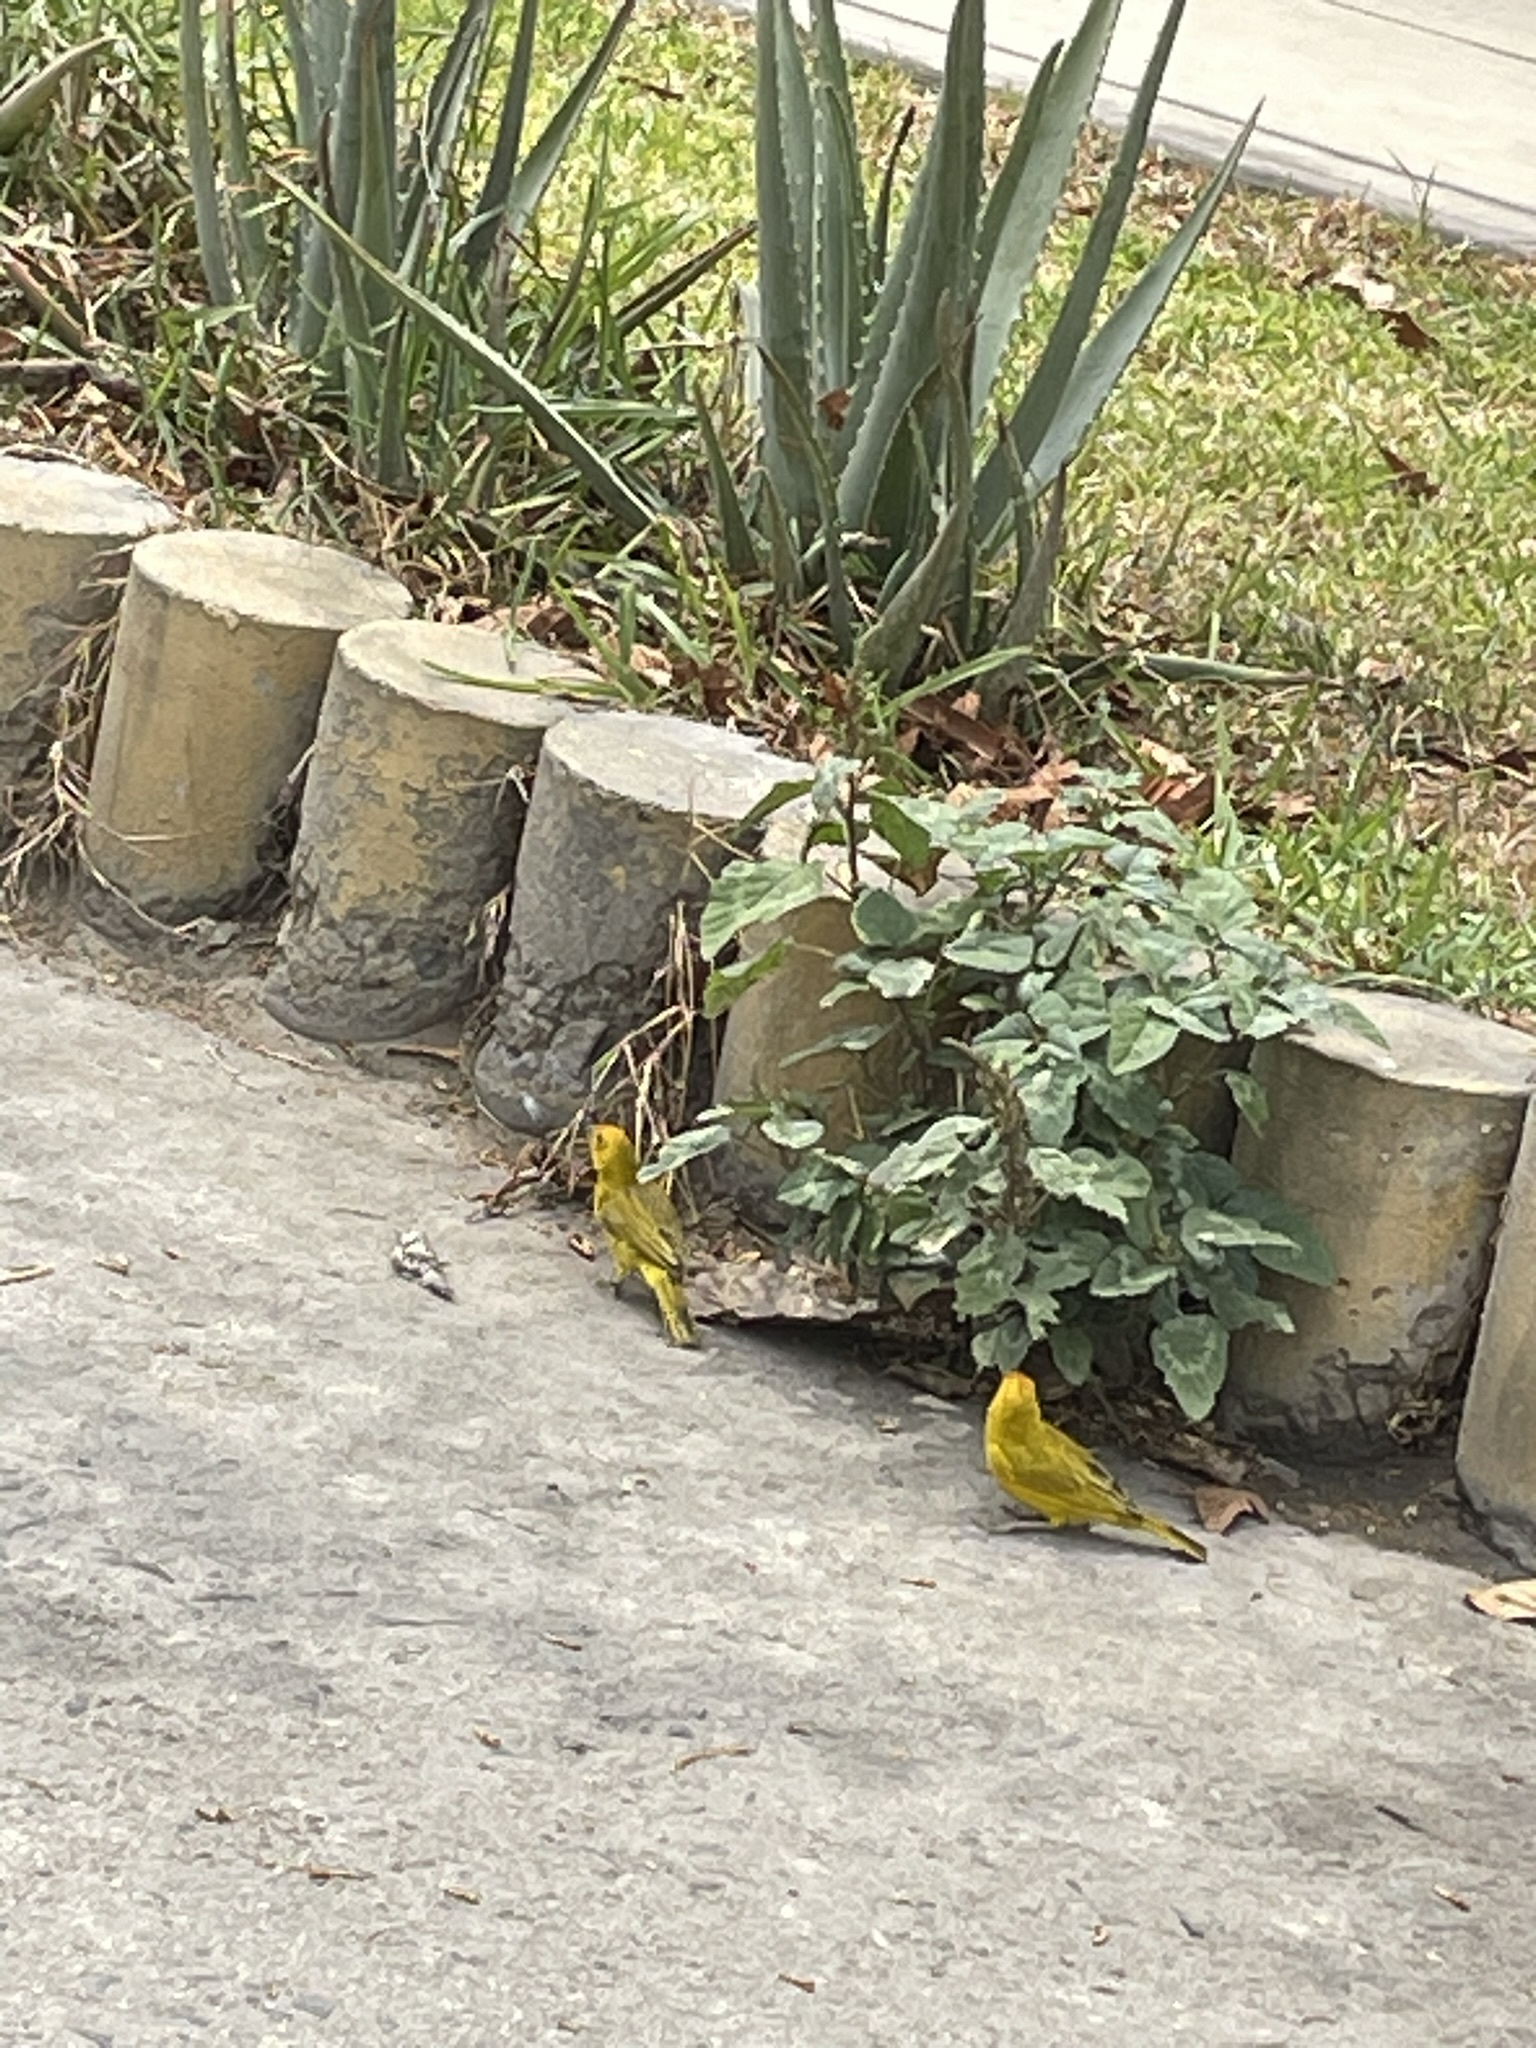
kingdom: Animalia
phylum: Chordata
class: Aves
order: Passeriformes
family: Thraupidae
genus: Sicalis
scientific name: Sicalis flaveola
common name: Saffron finch
